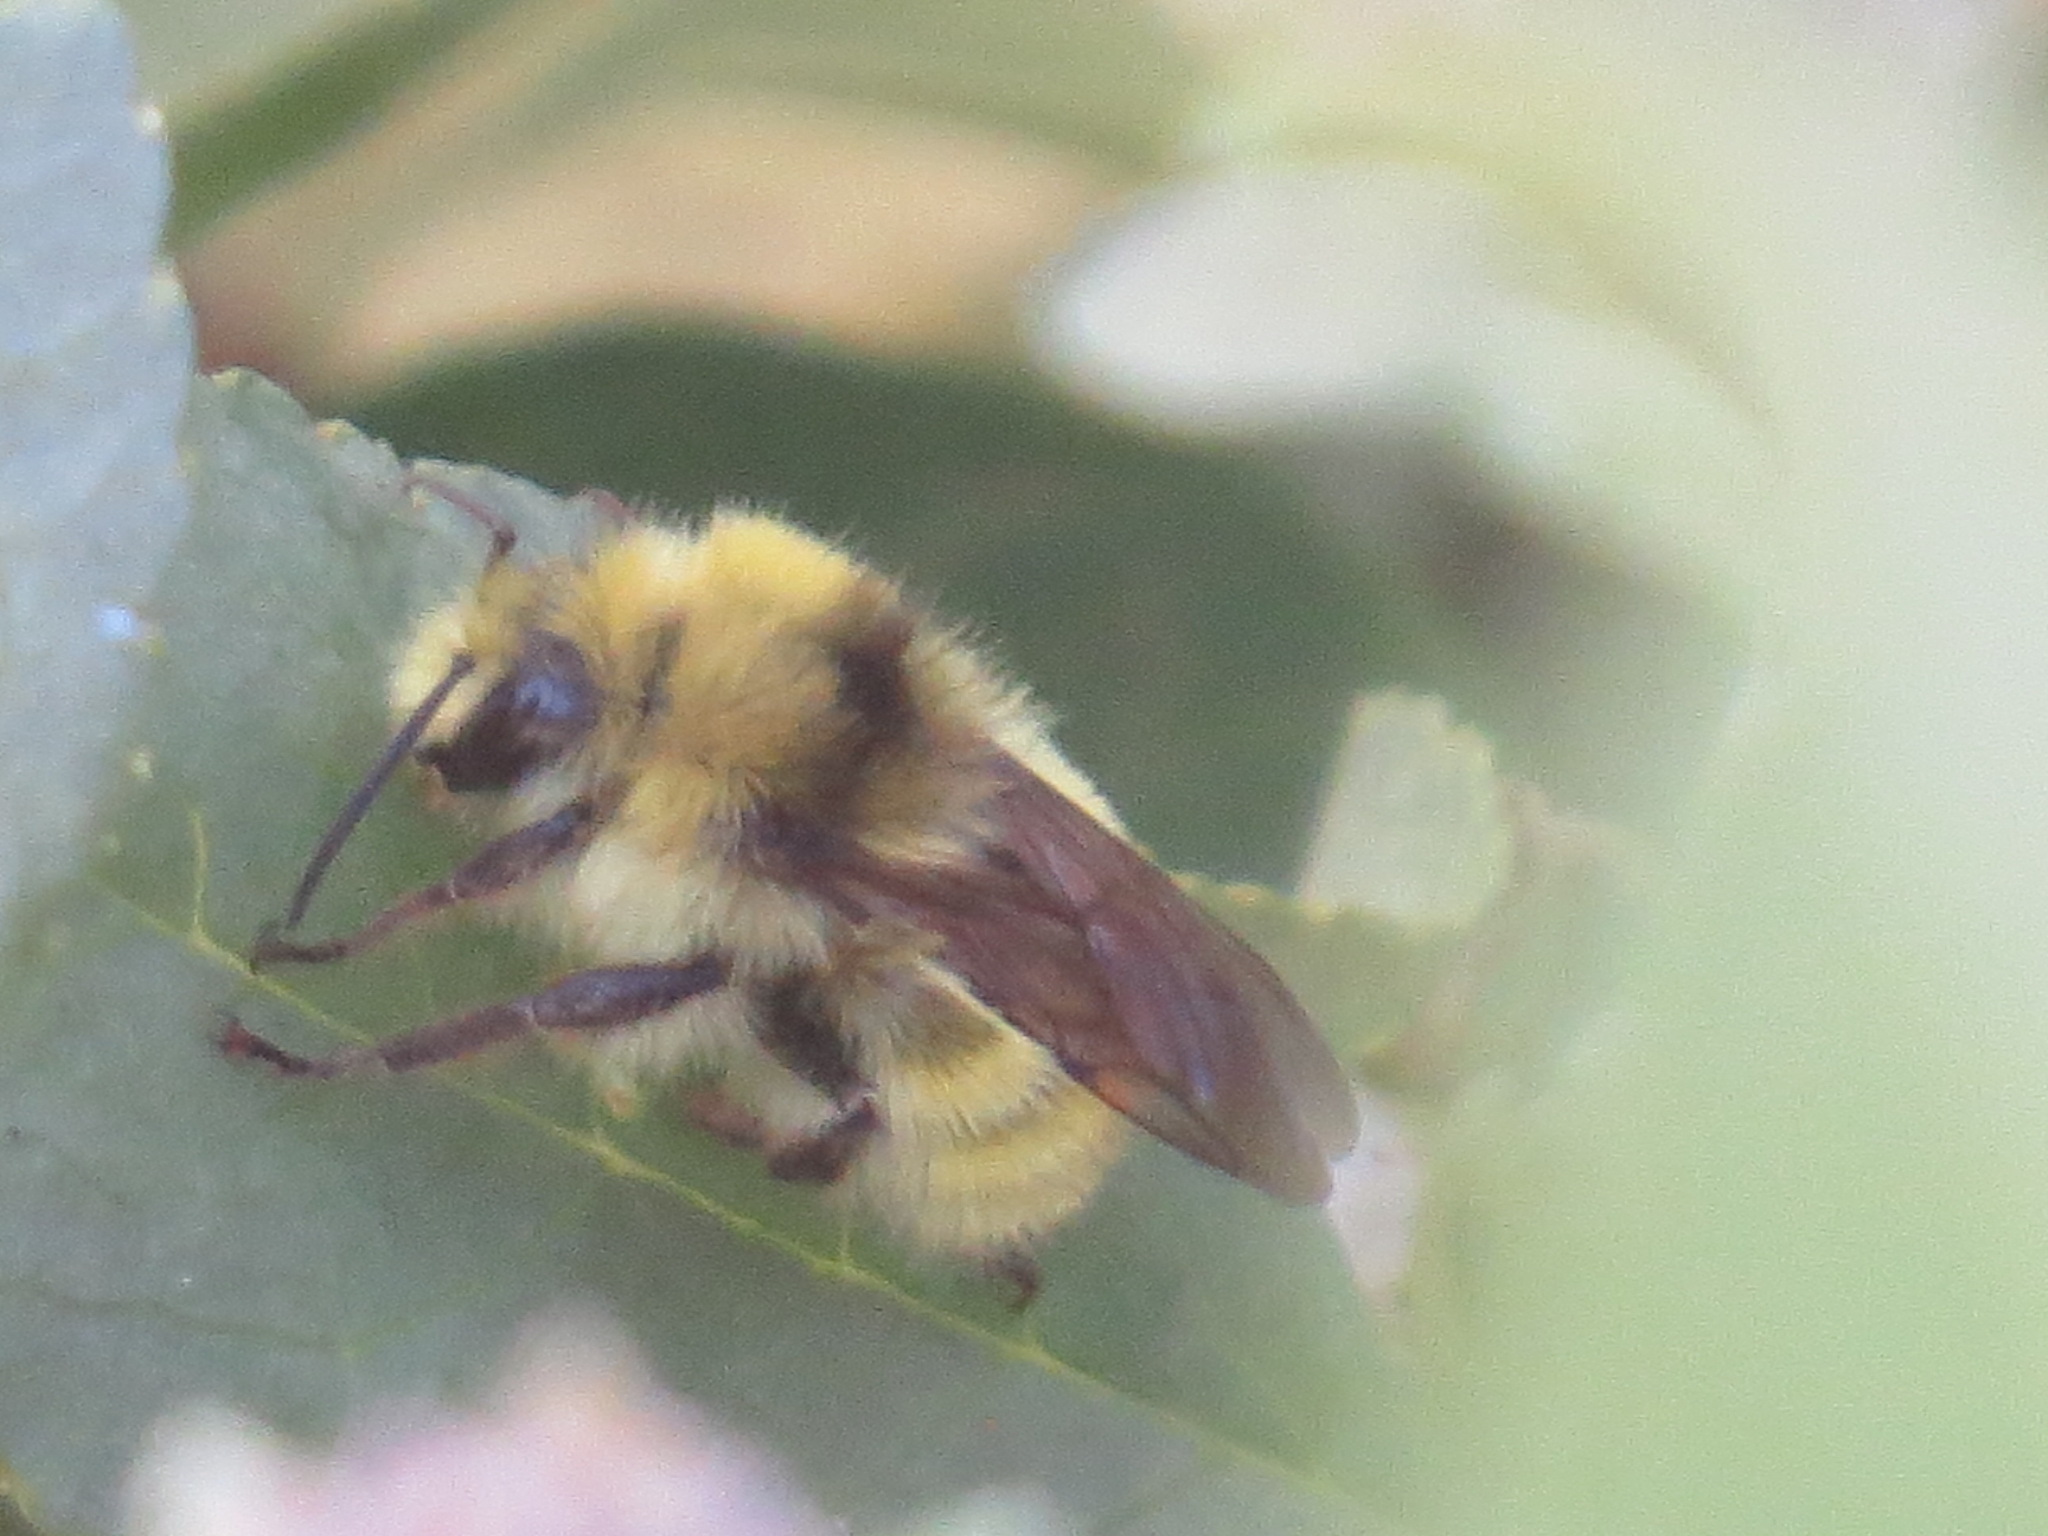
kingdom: Animalia
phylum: Arthropoda
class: Insecta
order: Hymenoptera
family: Apidae
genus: Bombus
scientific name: Bombus vandykei
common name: Van dyke bumble bee
